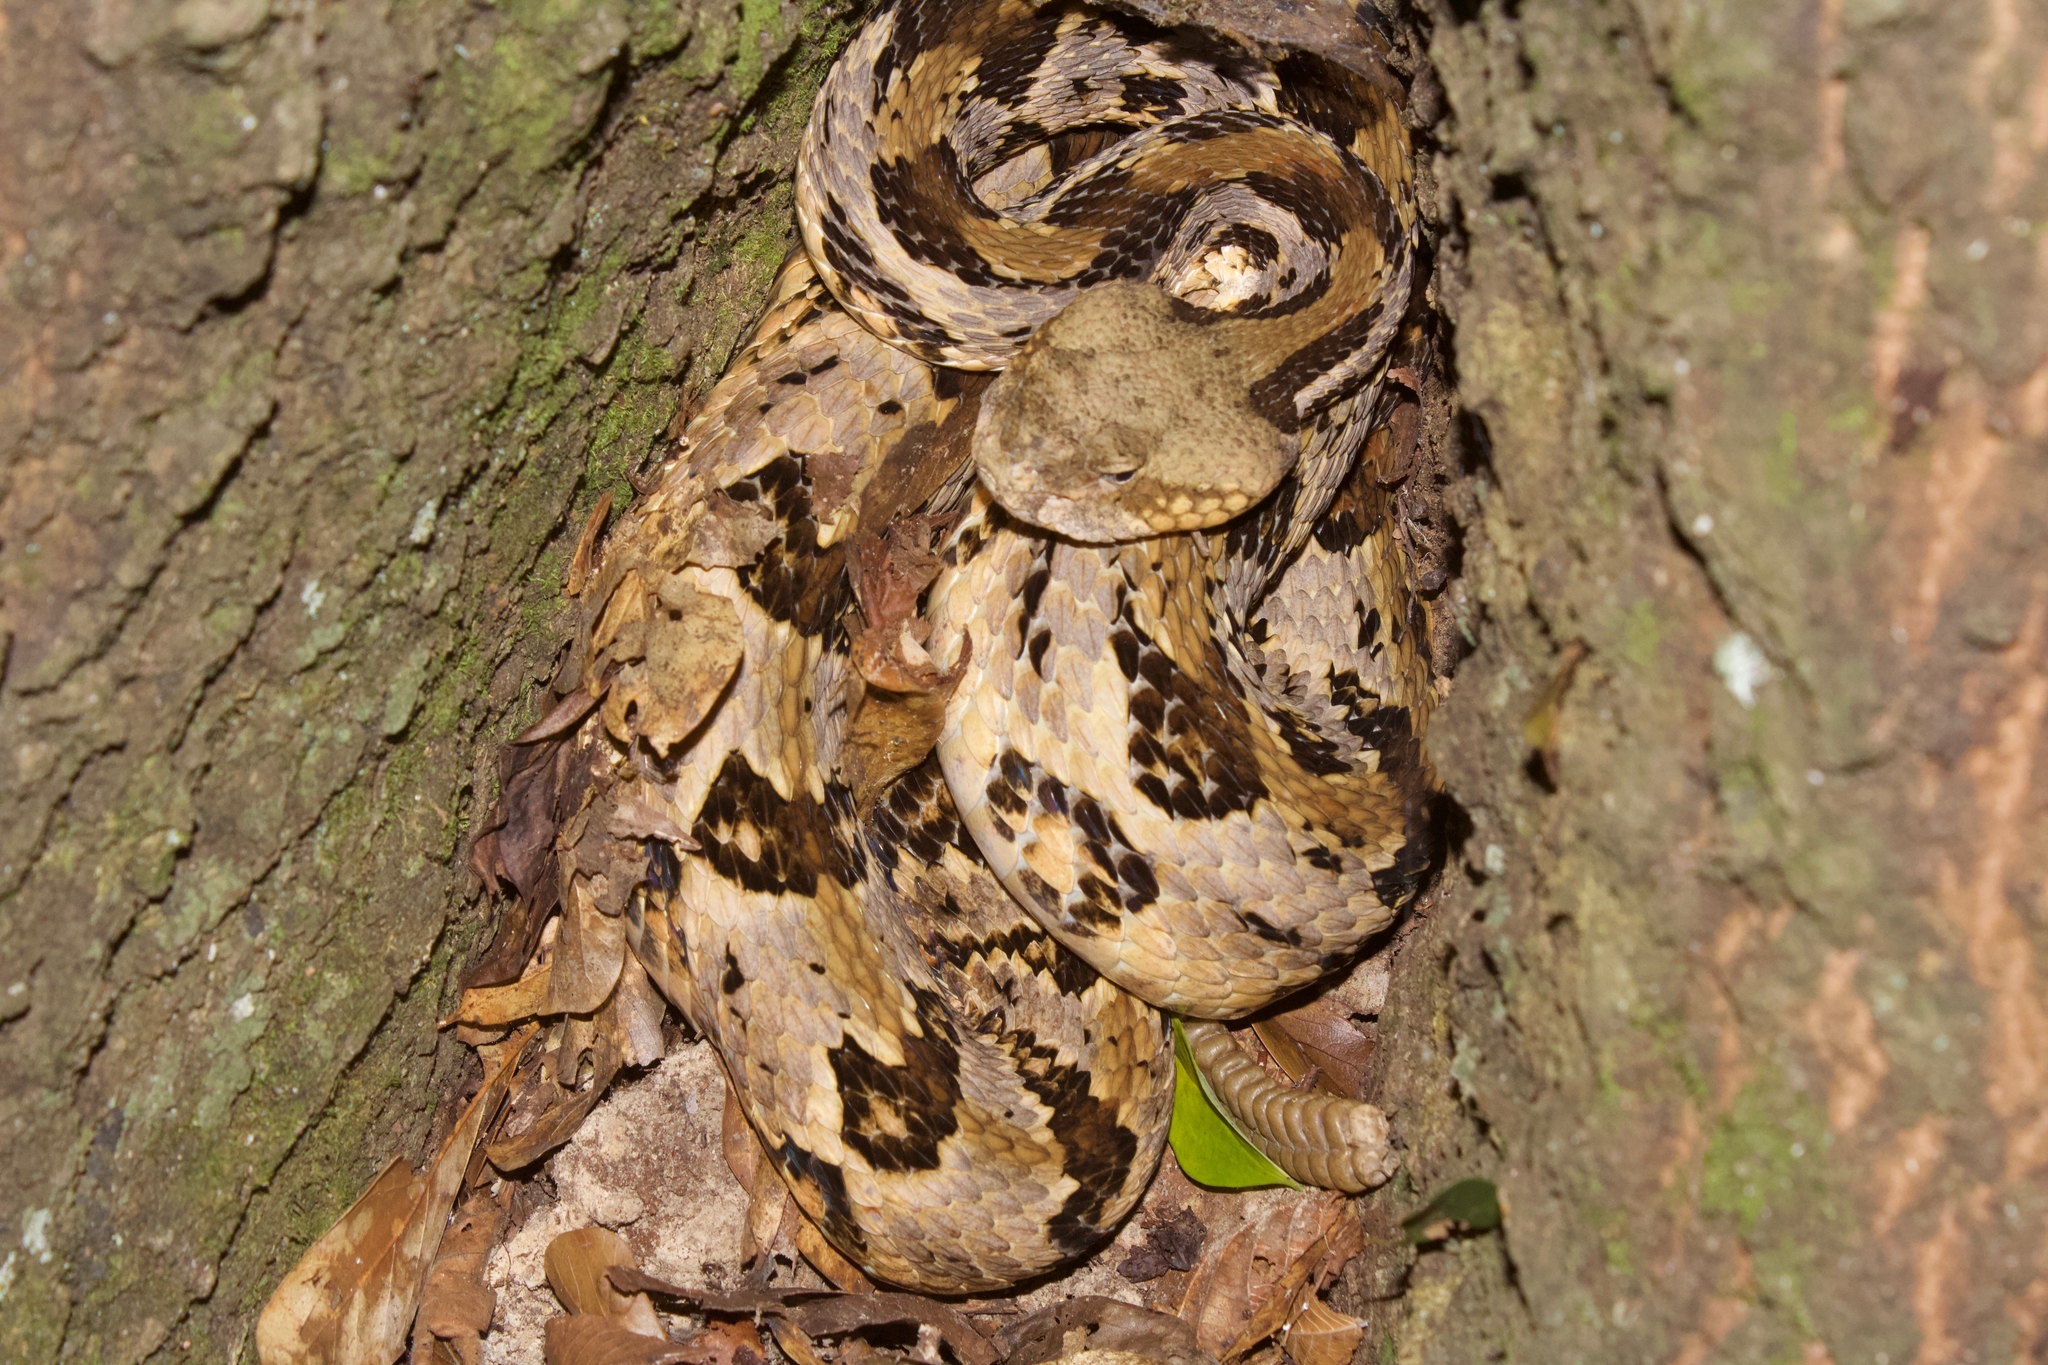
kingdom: Animalia
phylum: Chordata
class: Squamata
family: Viperidae
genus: Crotalus
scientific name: Crotalus horridus
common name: Timber rattlesnake
